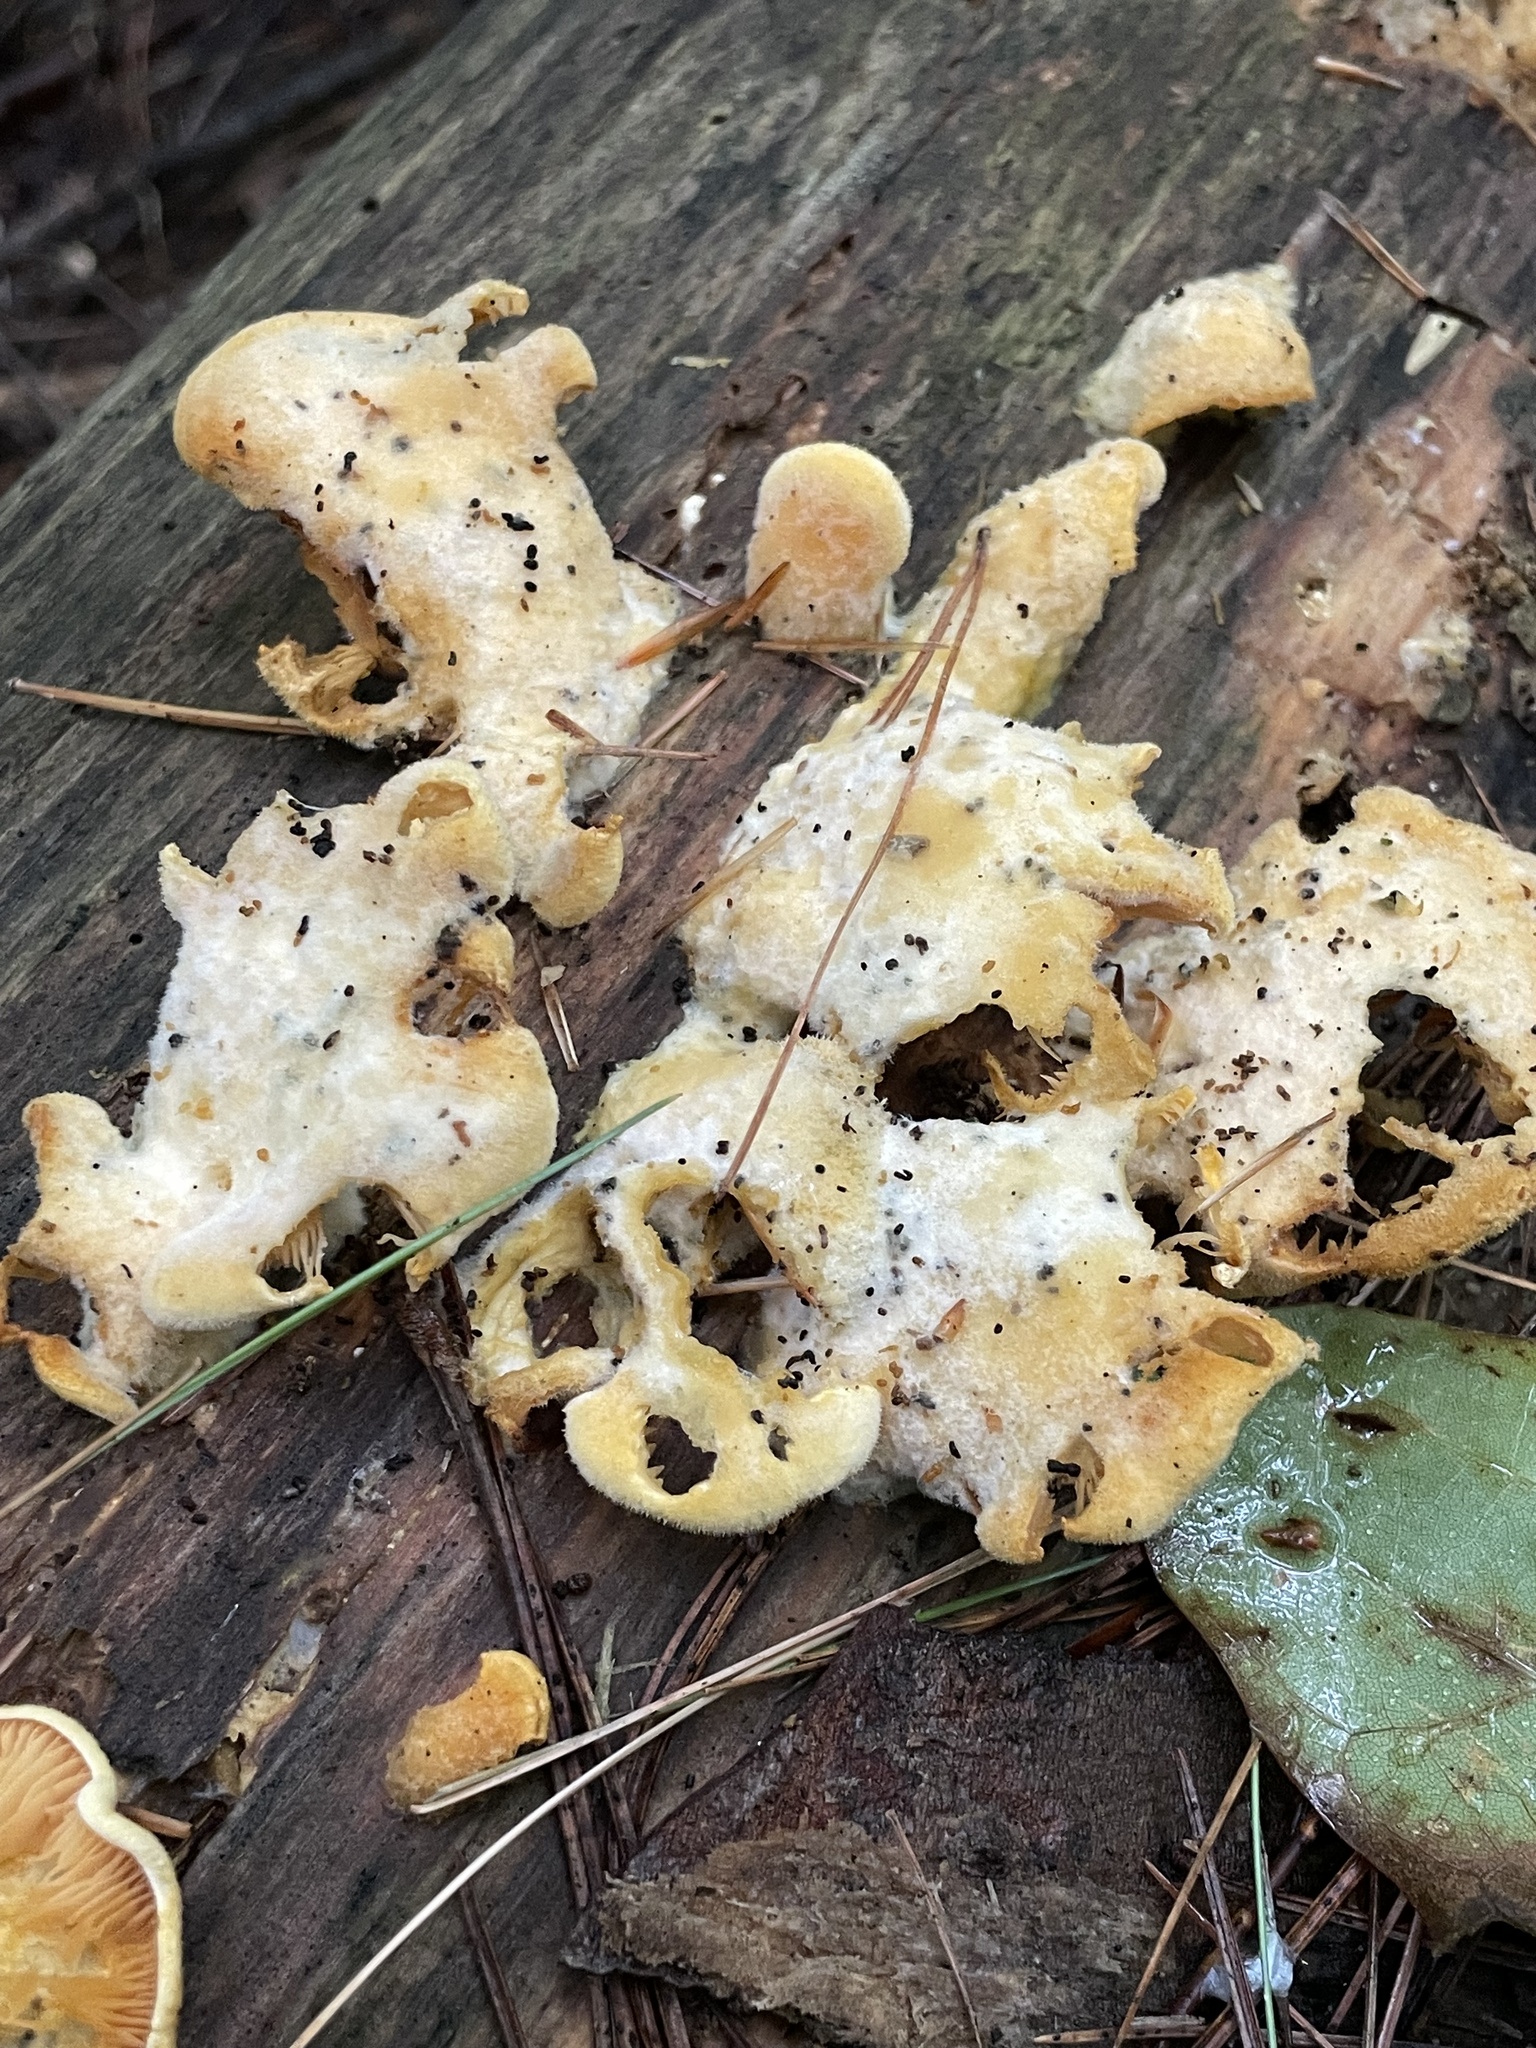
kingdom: Fungi
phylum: Basidiomycota
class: Agaricomycetes
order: Agaricales
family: Phyllotopsidaceae
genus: Phyllotopsis
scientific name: Phyllotopsis nidulans
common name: Orange mock oyster
